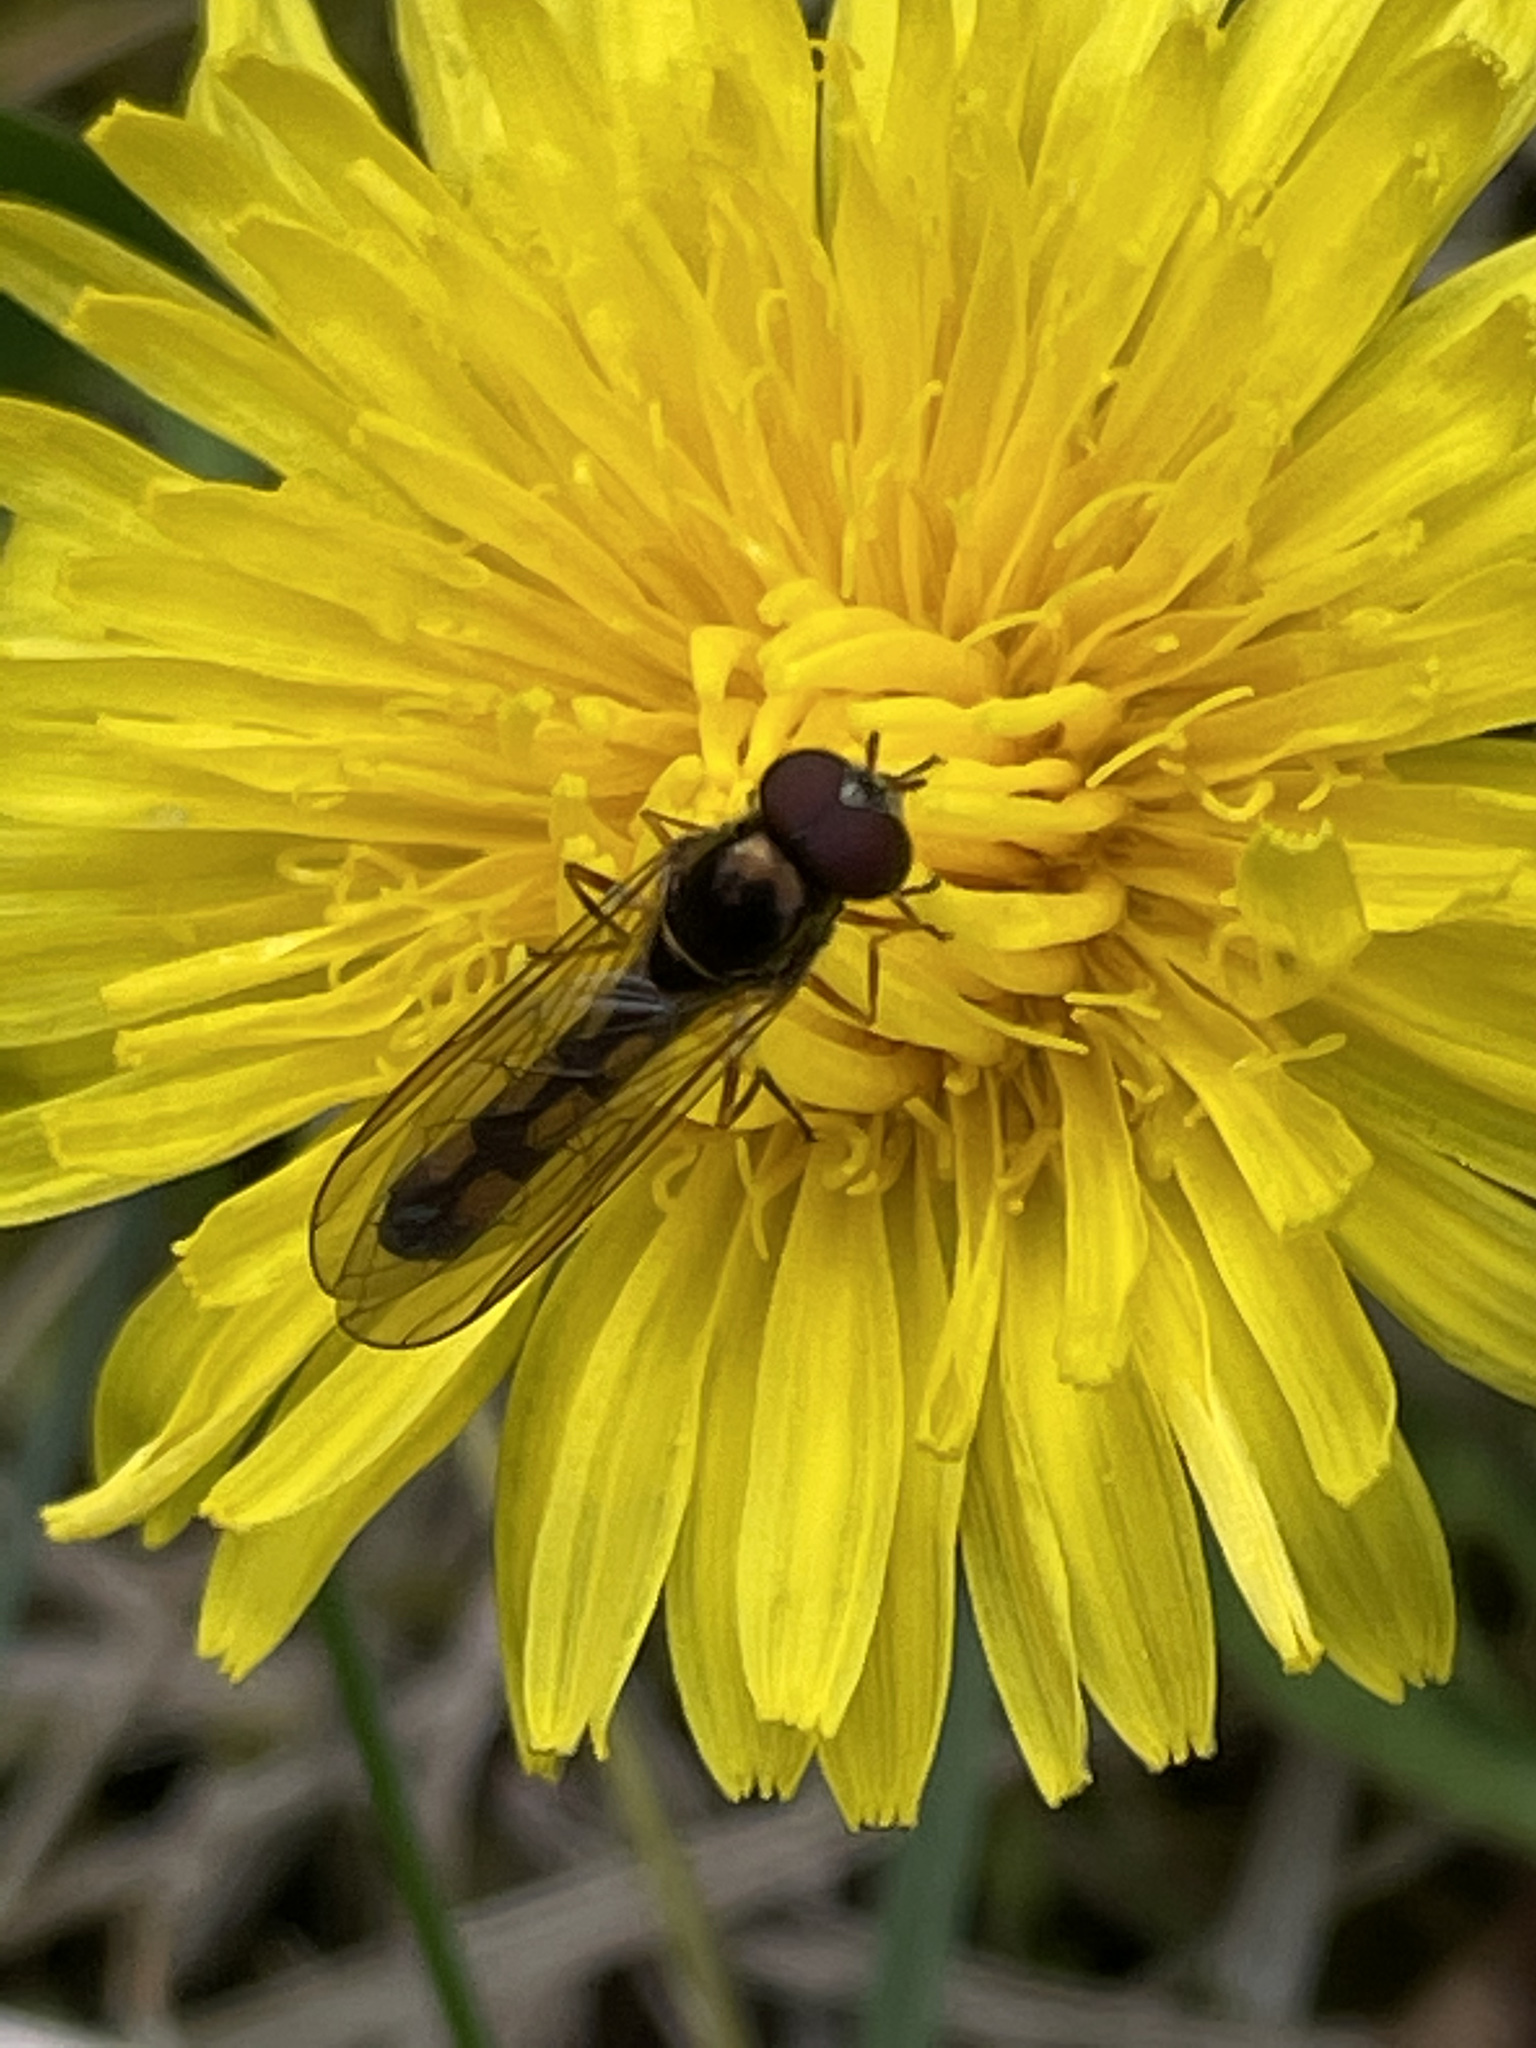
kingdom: Animalia
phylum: Arthropoda
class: Insecta
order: Diptera
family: Syrphidae
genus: Melanostoma
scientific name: Melanostoma scalare
